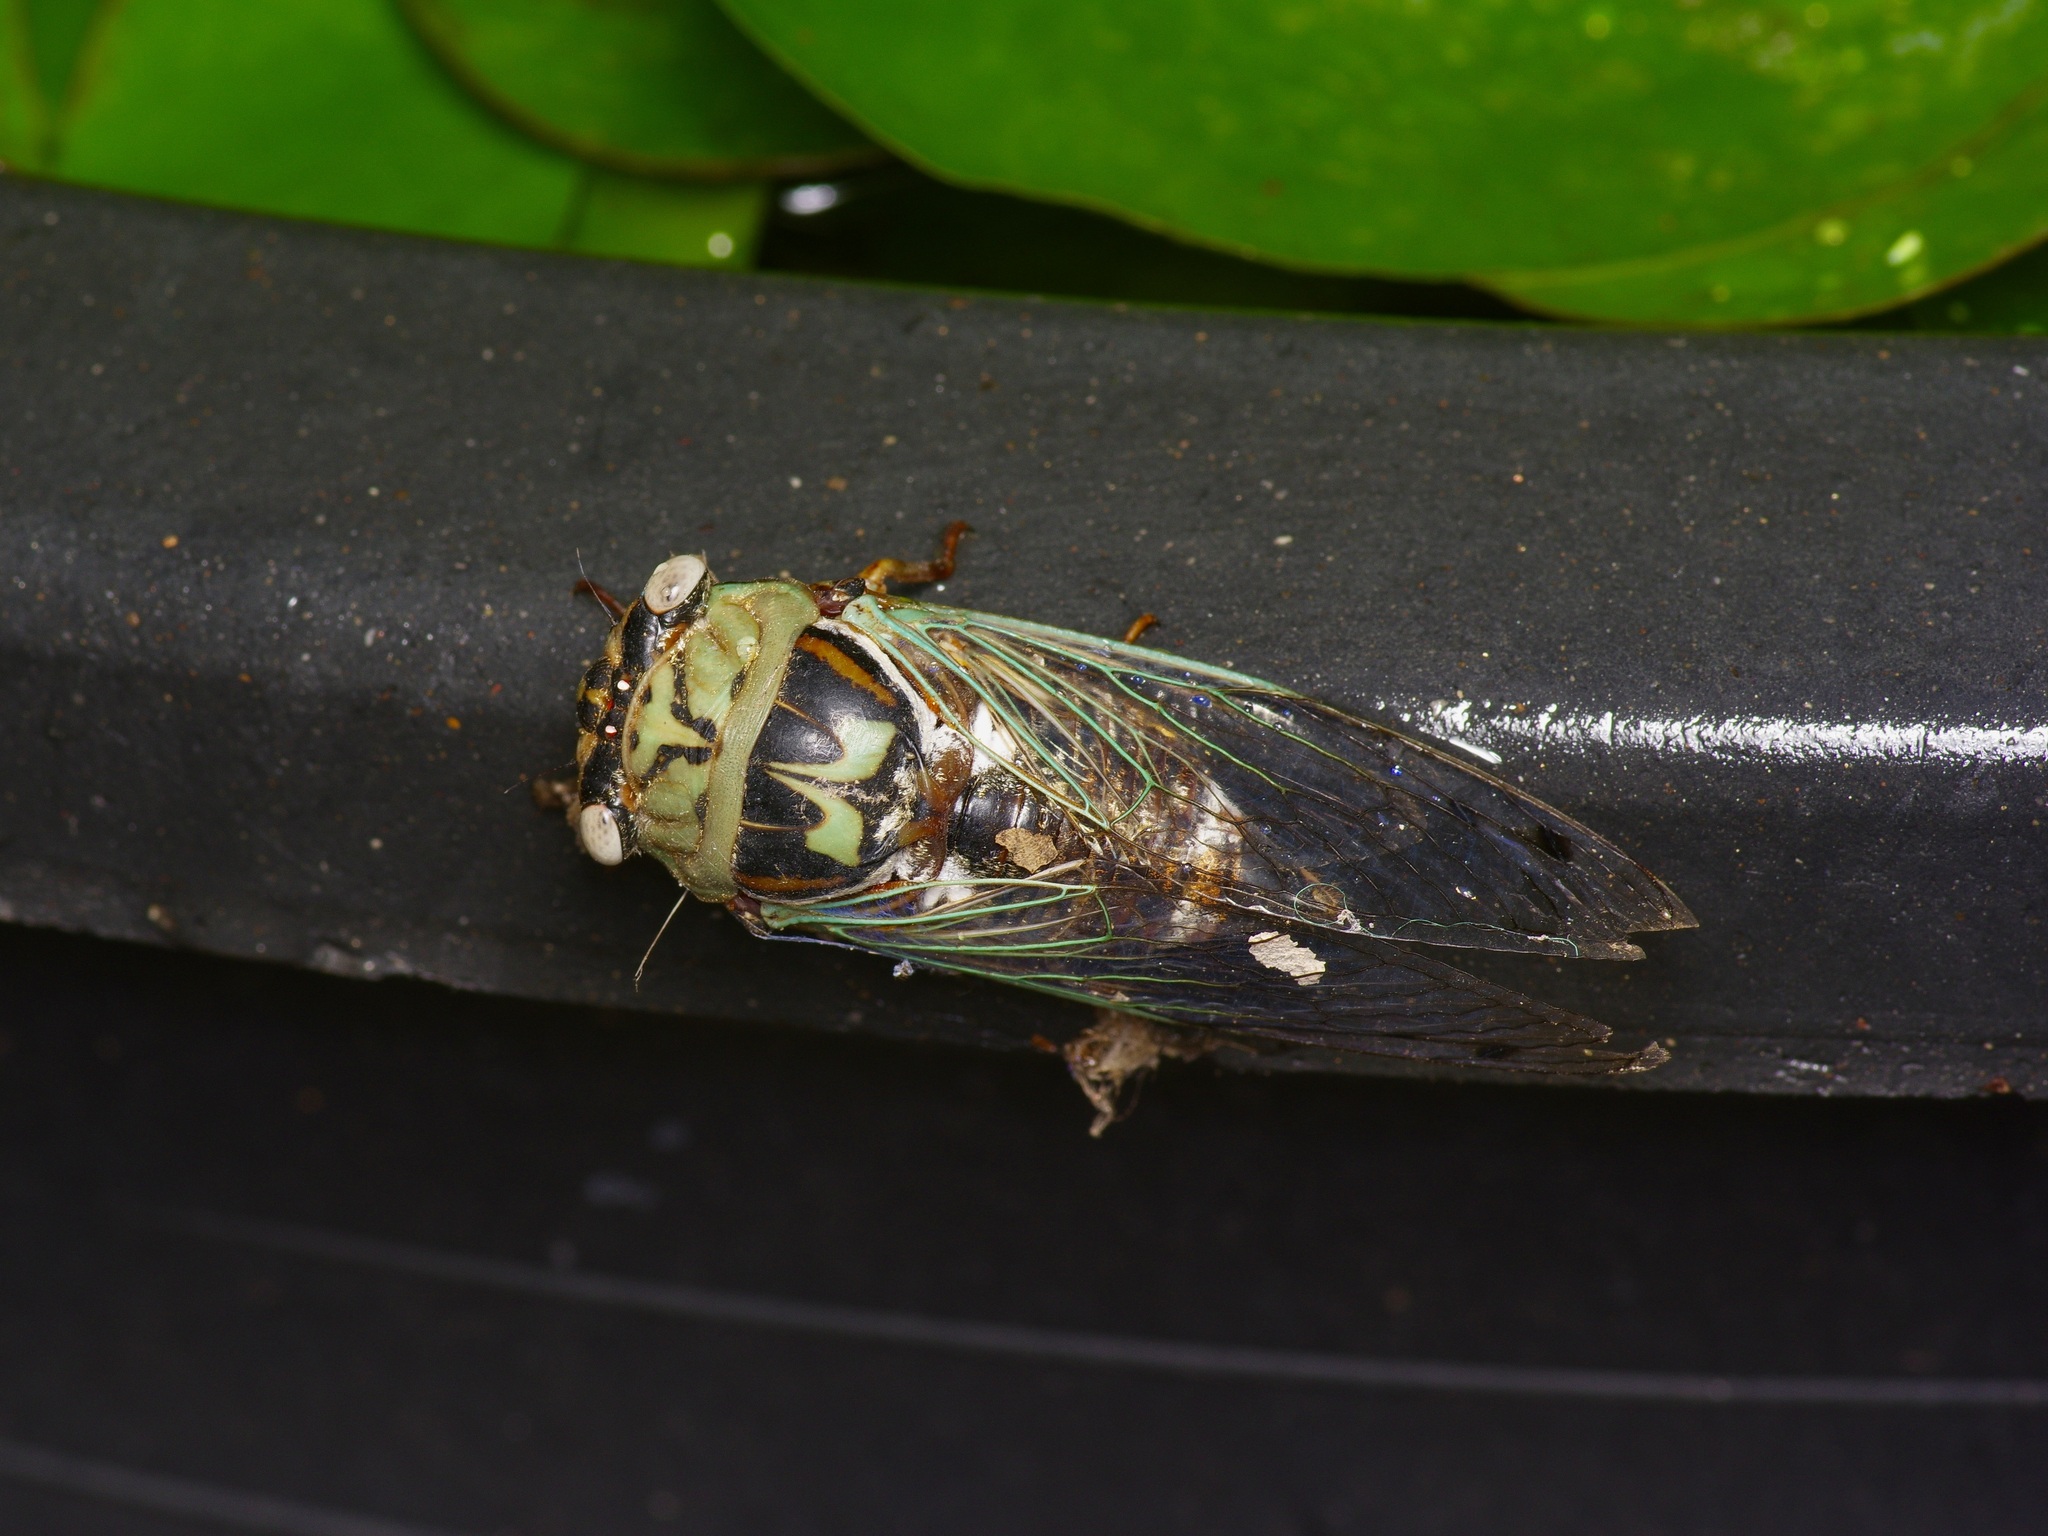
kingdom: Animalia
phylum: Arthropoda
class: Insecta
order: Hemiptera
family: Cicadidae
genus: Megatibicen
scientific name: Megatibicen resh
